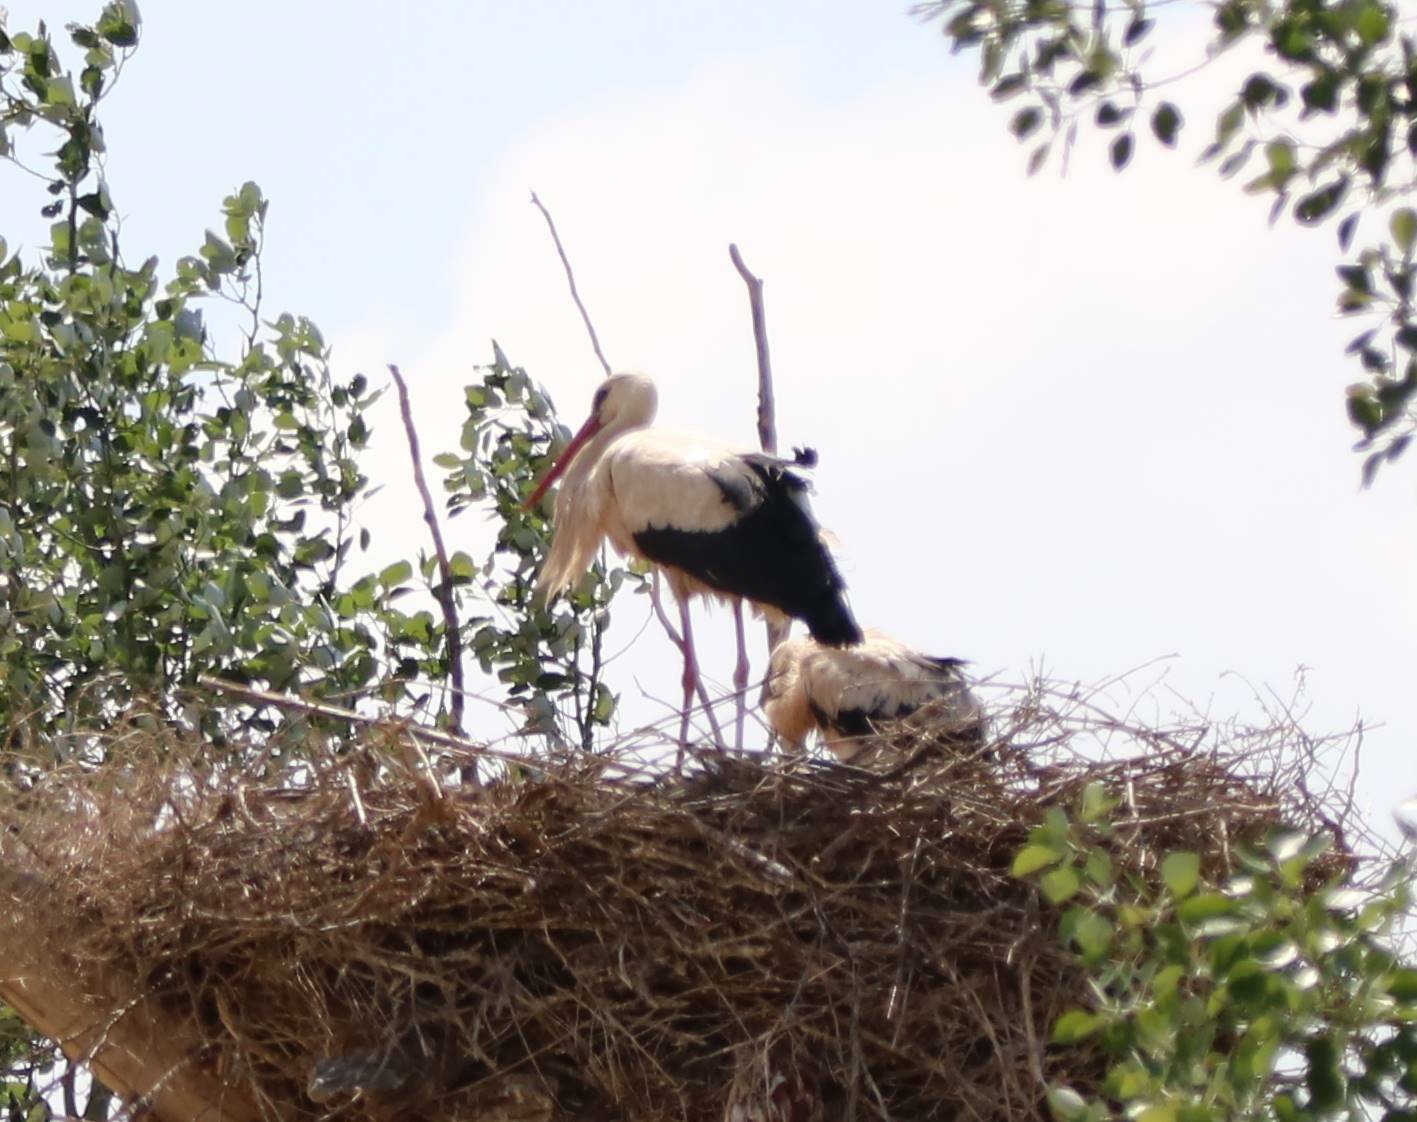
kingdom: Animalia
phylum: Chordata
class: Aves
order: Ciconiiformes
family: Ciconiidae
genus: Ciconia
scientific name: Ciconia ciconia
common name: White stork
